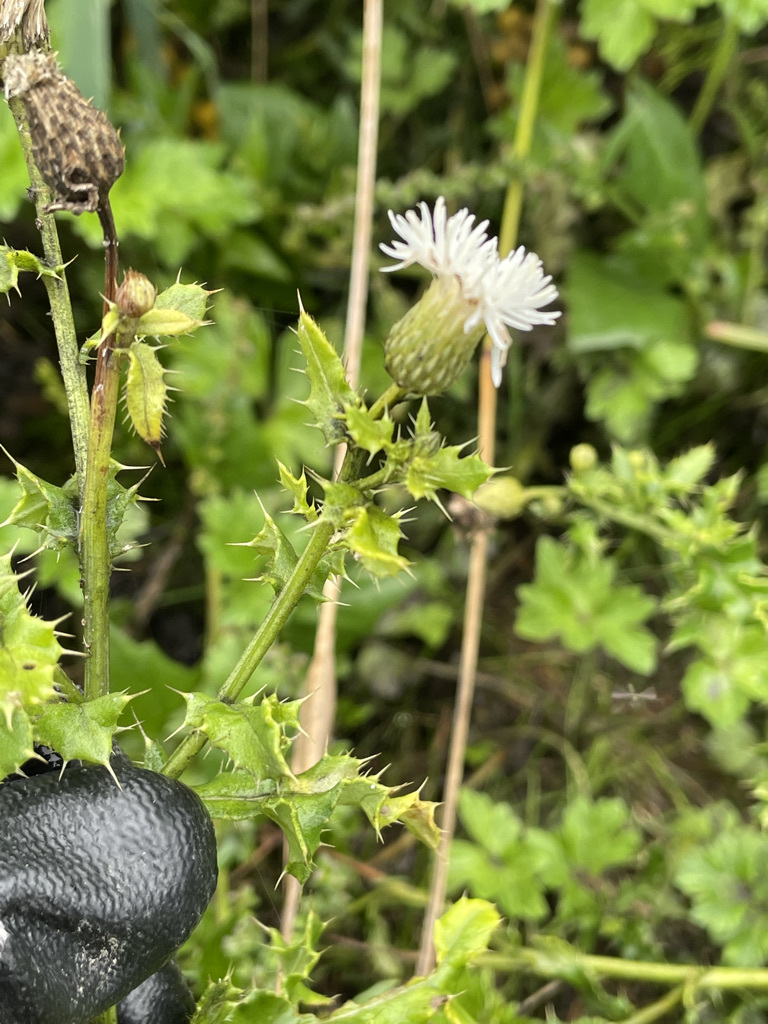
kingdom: Plantae
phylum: Tracheophyta
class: Magnoliopsida
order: Asterales
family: Asteraceae
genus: Cirsium
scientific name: Cirsium arvense
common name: Creeping thistle
